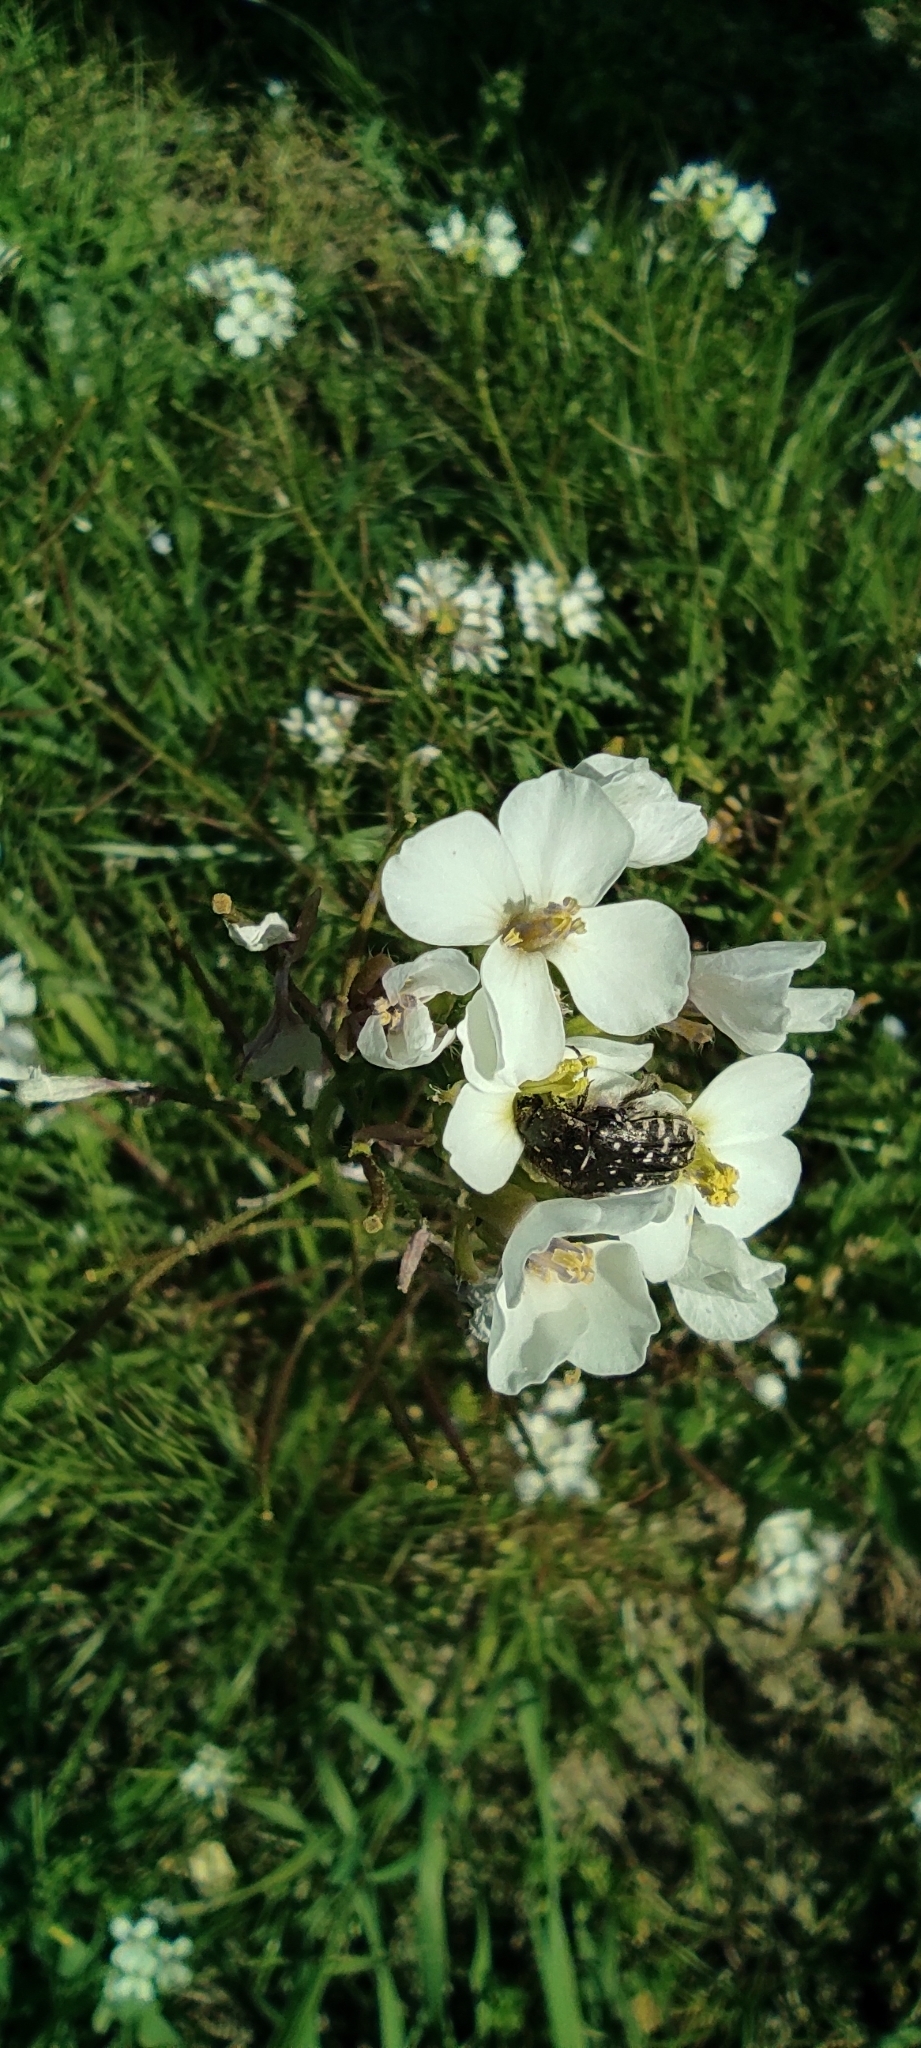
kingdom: Animalia
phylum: Arthropoda
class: Insecta
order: Coleoptera
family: Scarabaeidae
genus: Oxythyrea
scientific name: Oxythyrea funesta
